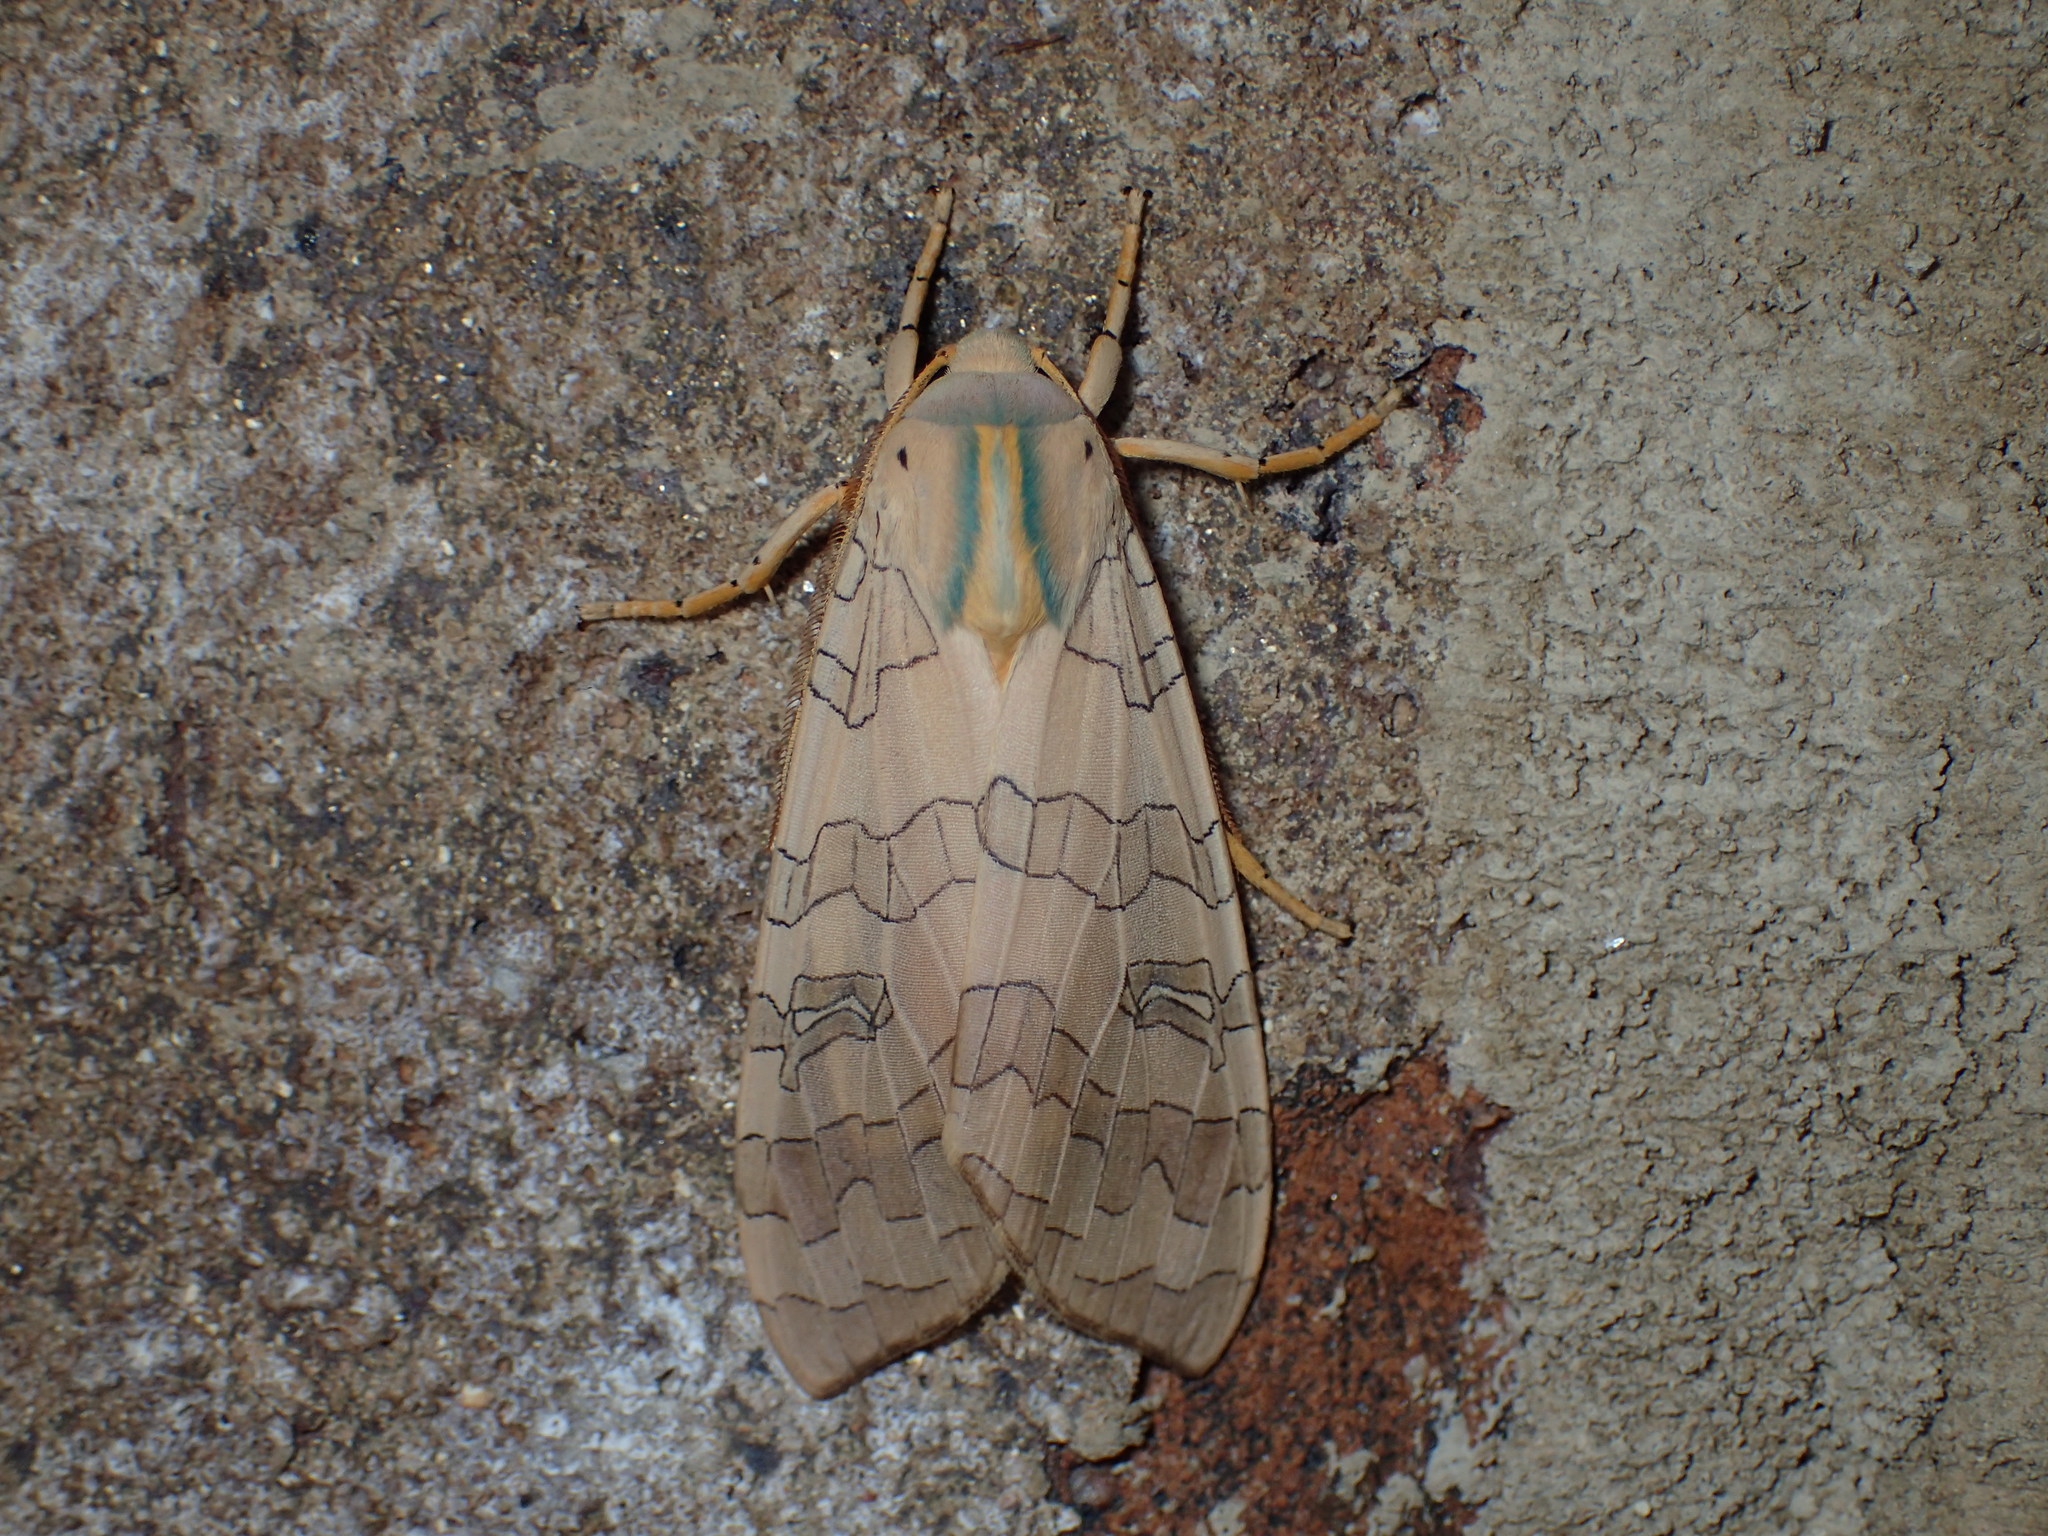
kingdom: Animalia
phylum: Arthropoda
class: Insecta
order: Lepidoptera
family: Erebidae
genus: Halysidota
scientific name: Halysidota
